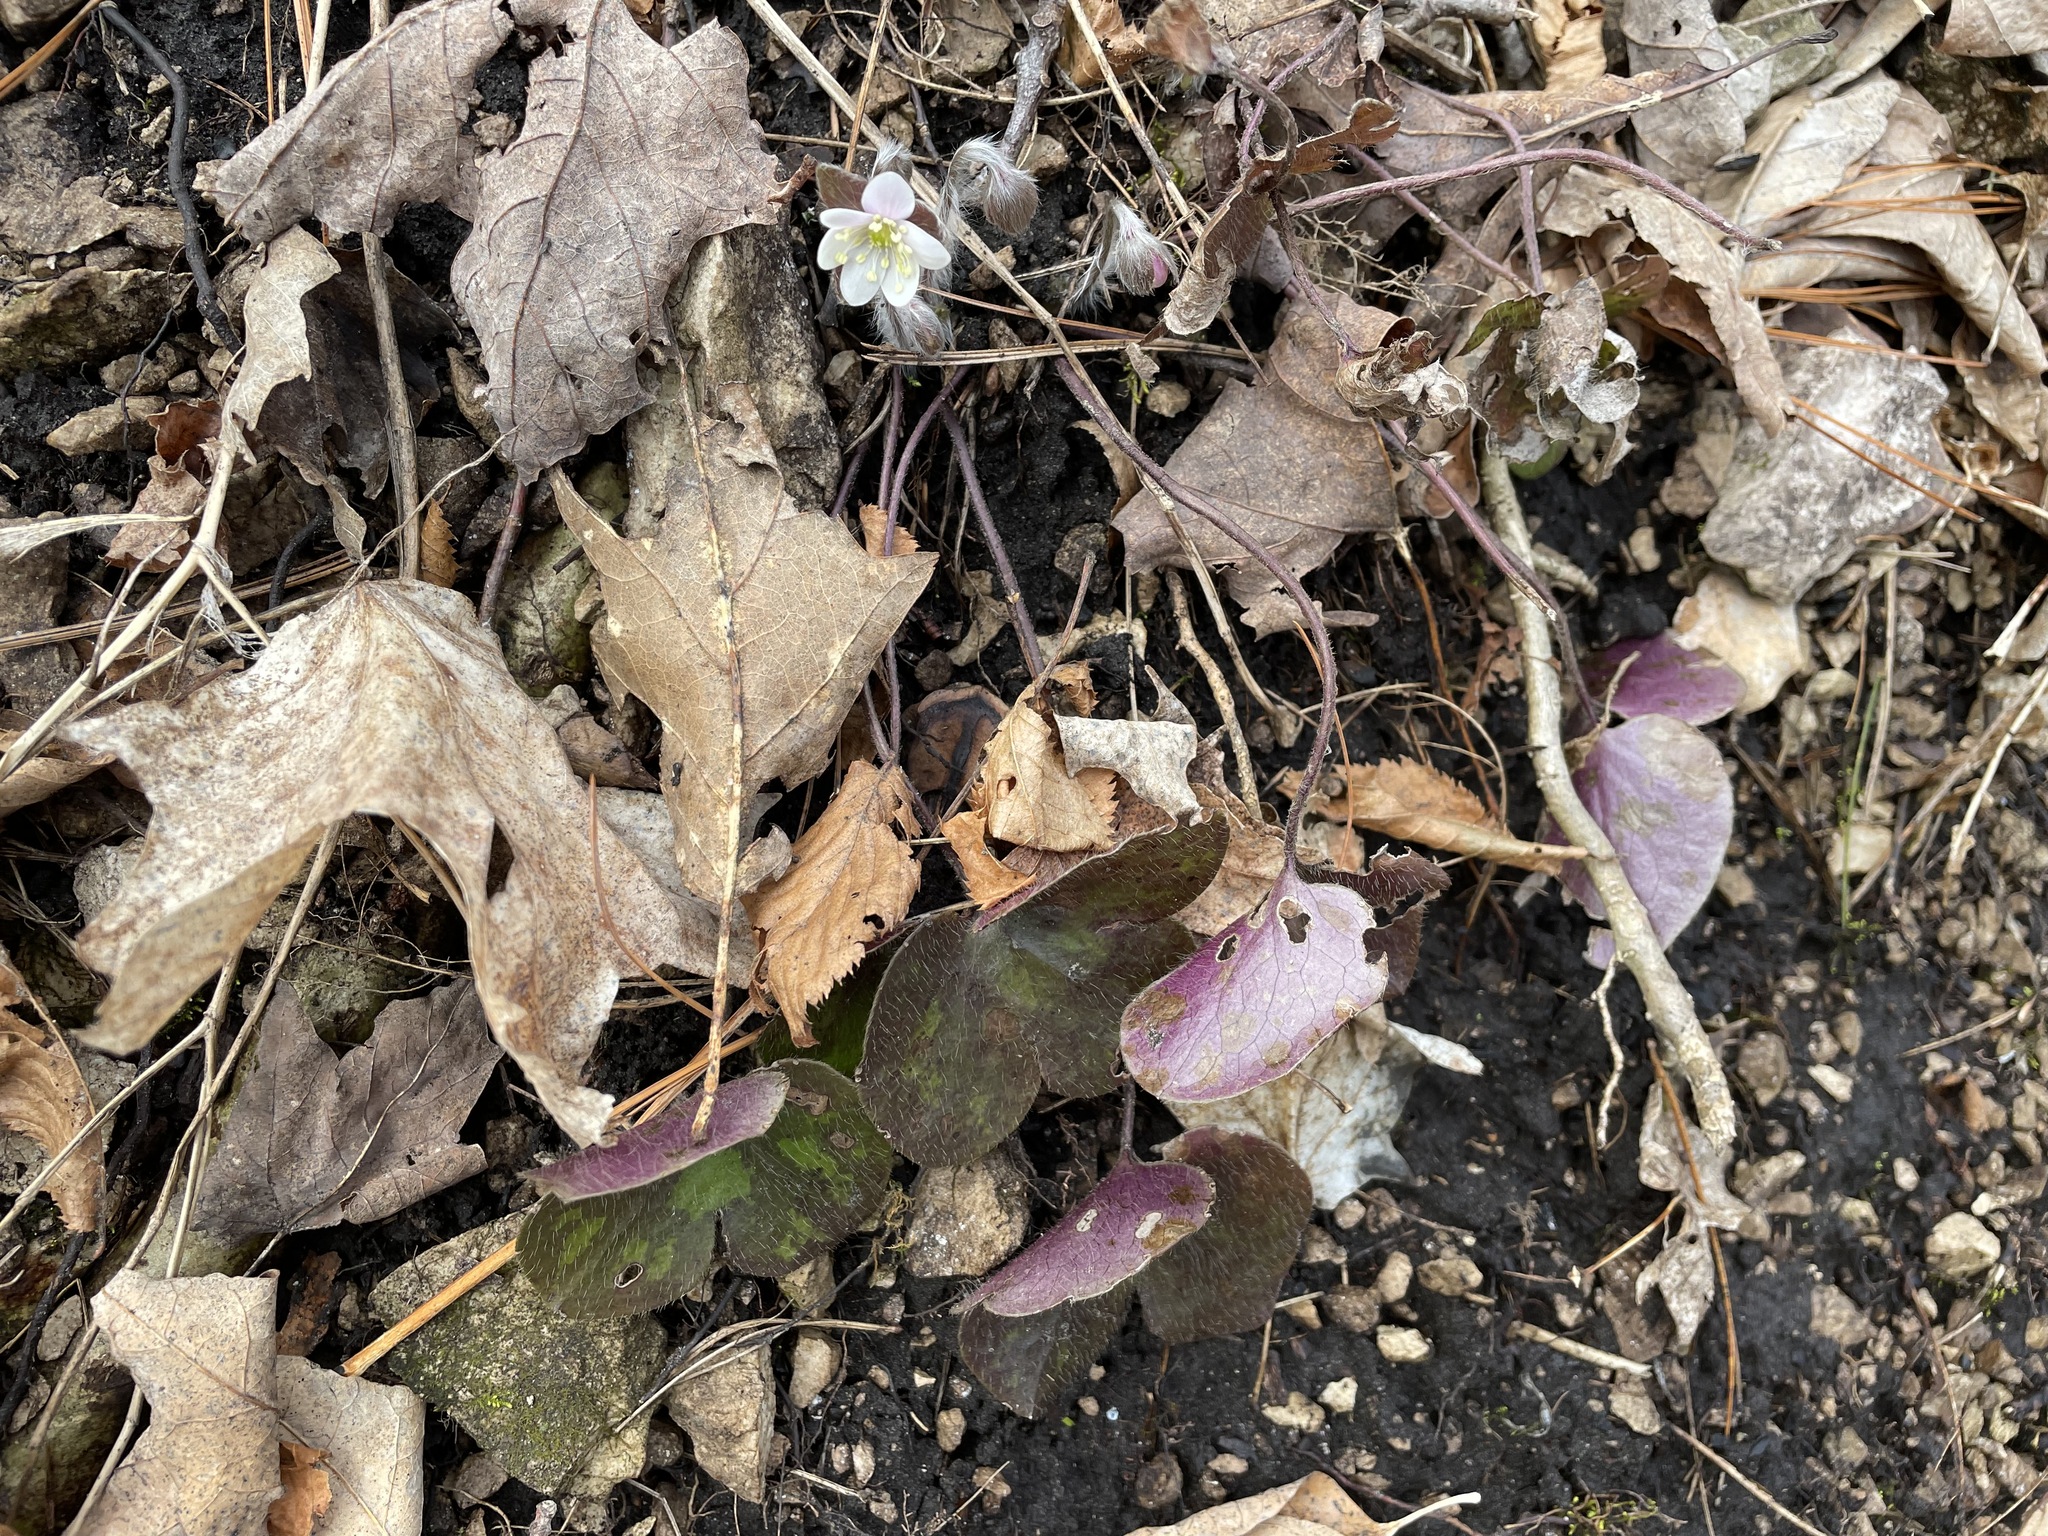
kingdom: Plantae
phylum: Tracheophyta
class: Magnoliopsida
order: Ranunculales
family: Ranunculaceae
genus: Hepatica
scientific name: Hepatica americana
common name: American hepatica
